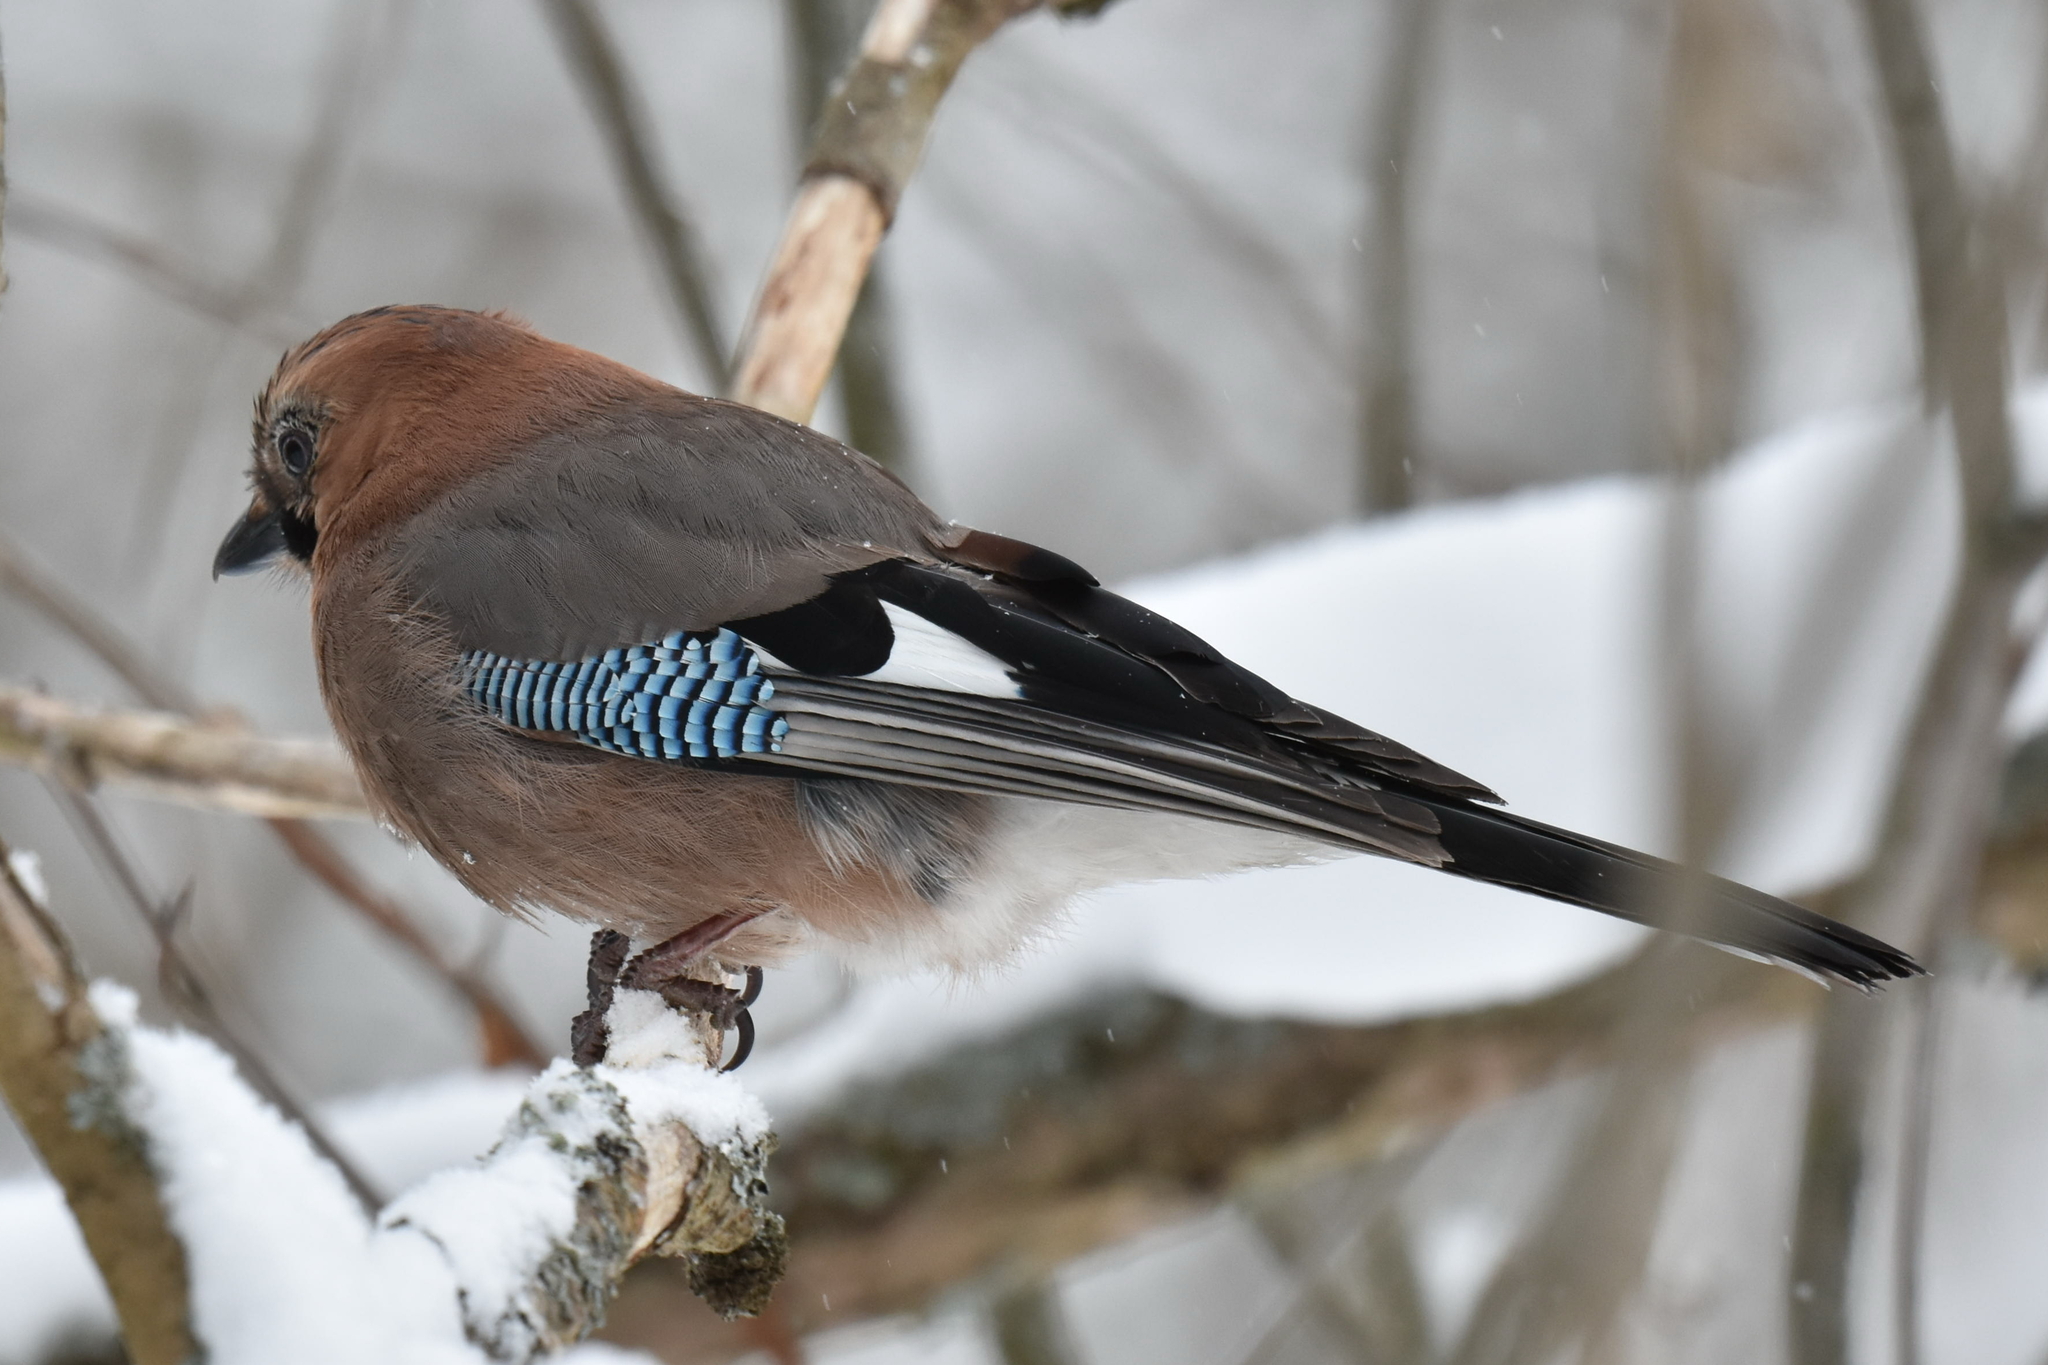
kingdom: Animalia
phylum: Chordata
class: Aves
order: Passeriformes
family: Corvidae
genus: Garrulus
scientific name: Garrulus glandarius
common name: Eurasian jay
